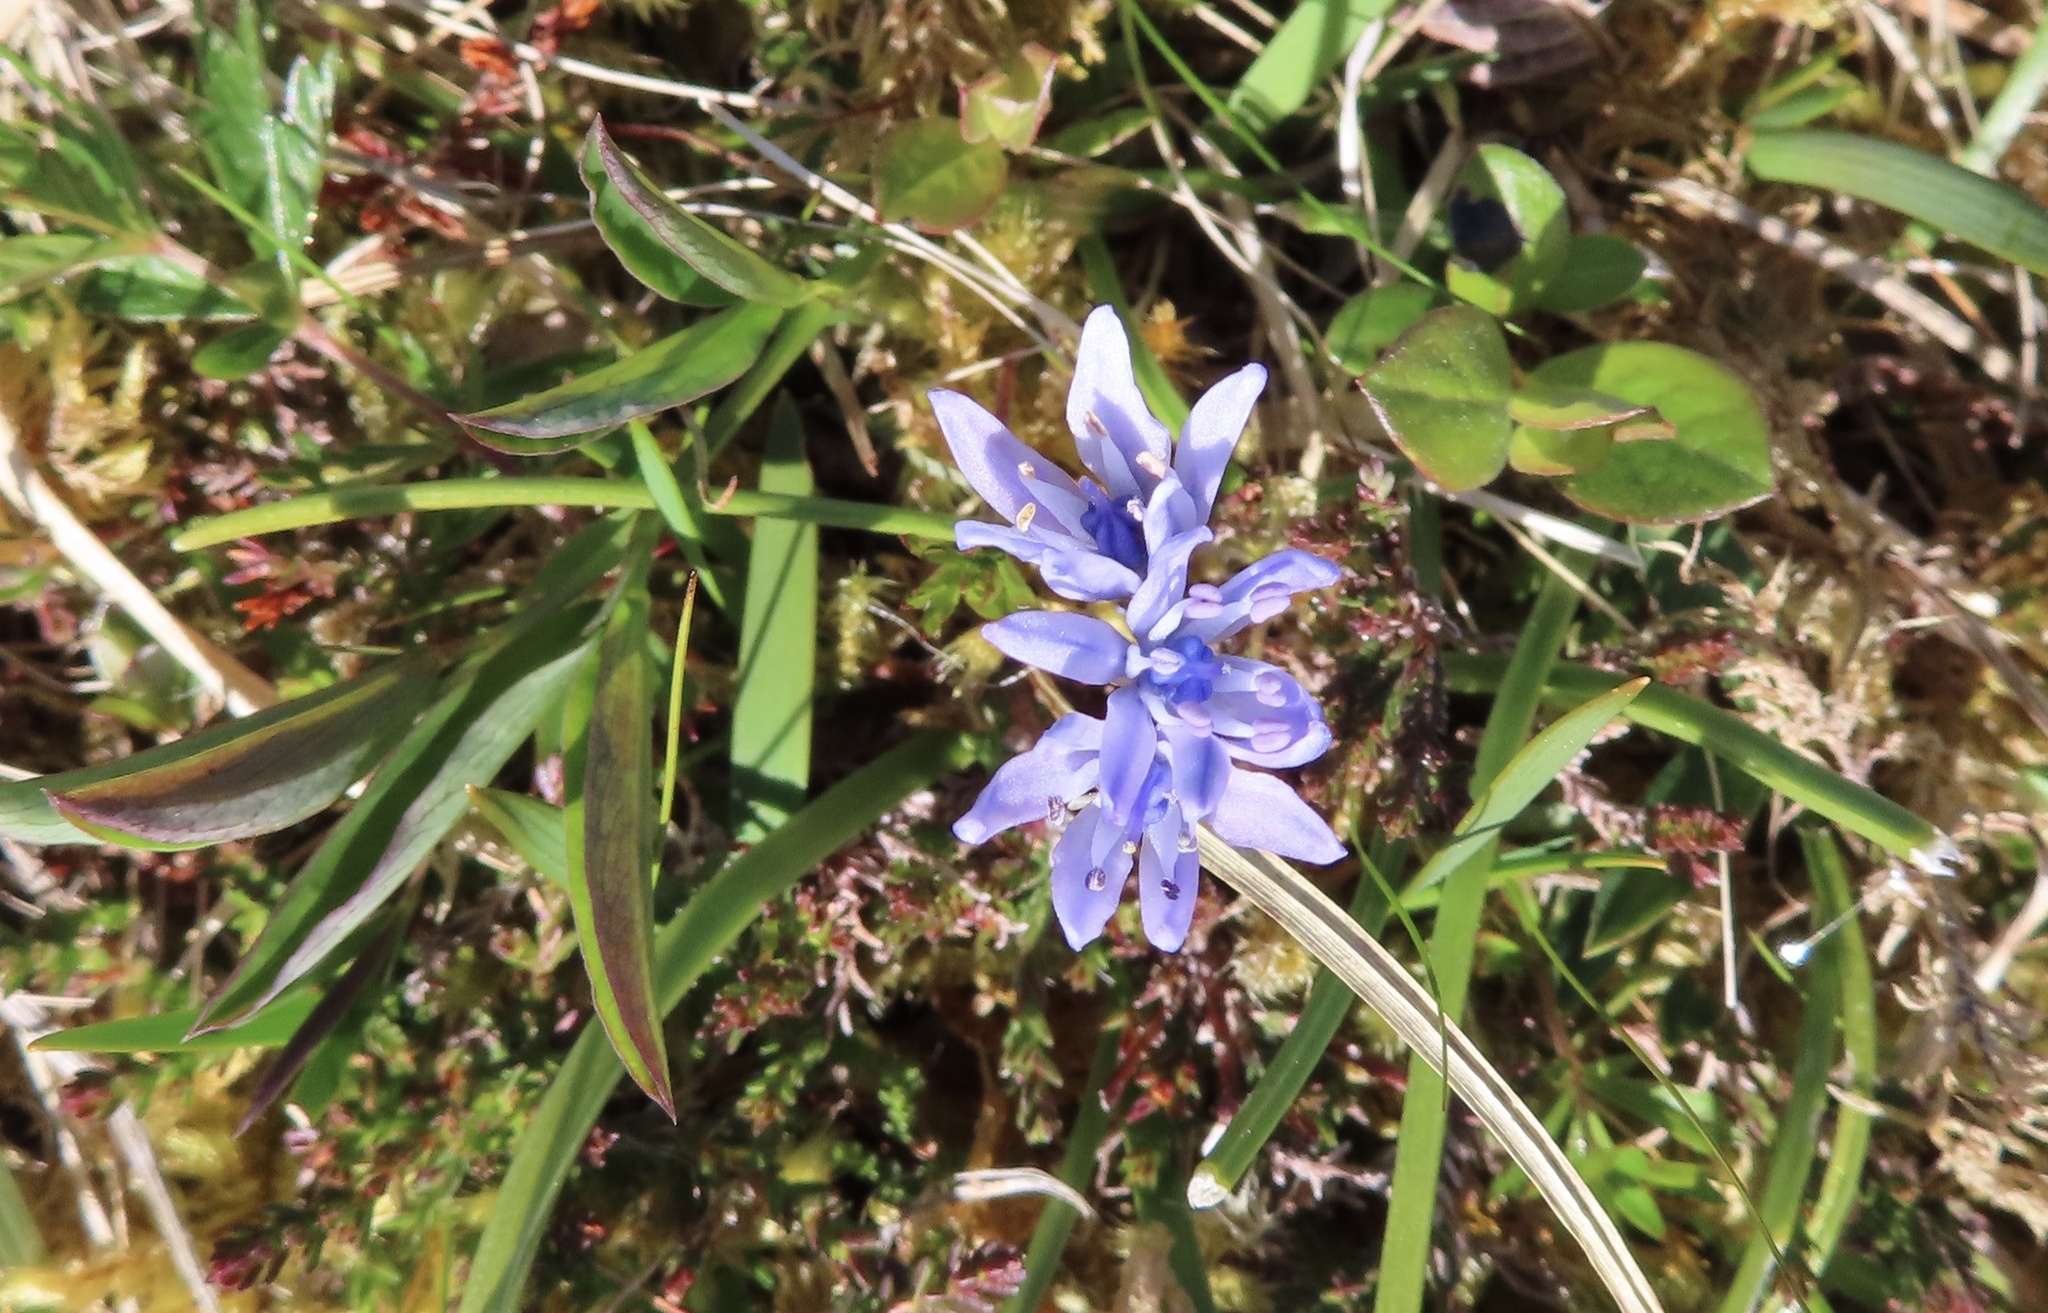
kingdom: Plantae
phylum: Tracheophyta
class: Liliopsida
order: Asparagales
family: Asparagaceae
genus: Scilla
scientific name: Scilla verna
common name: Spring squill
